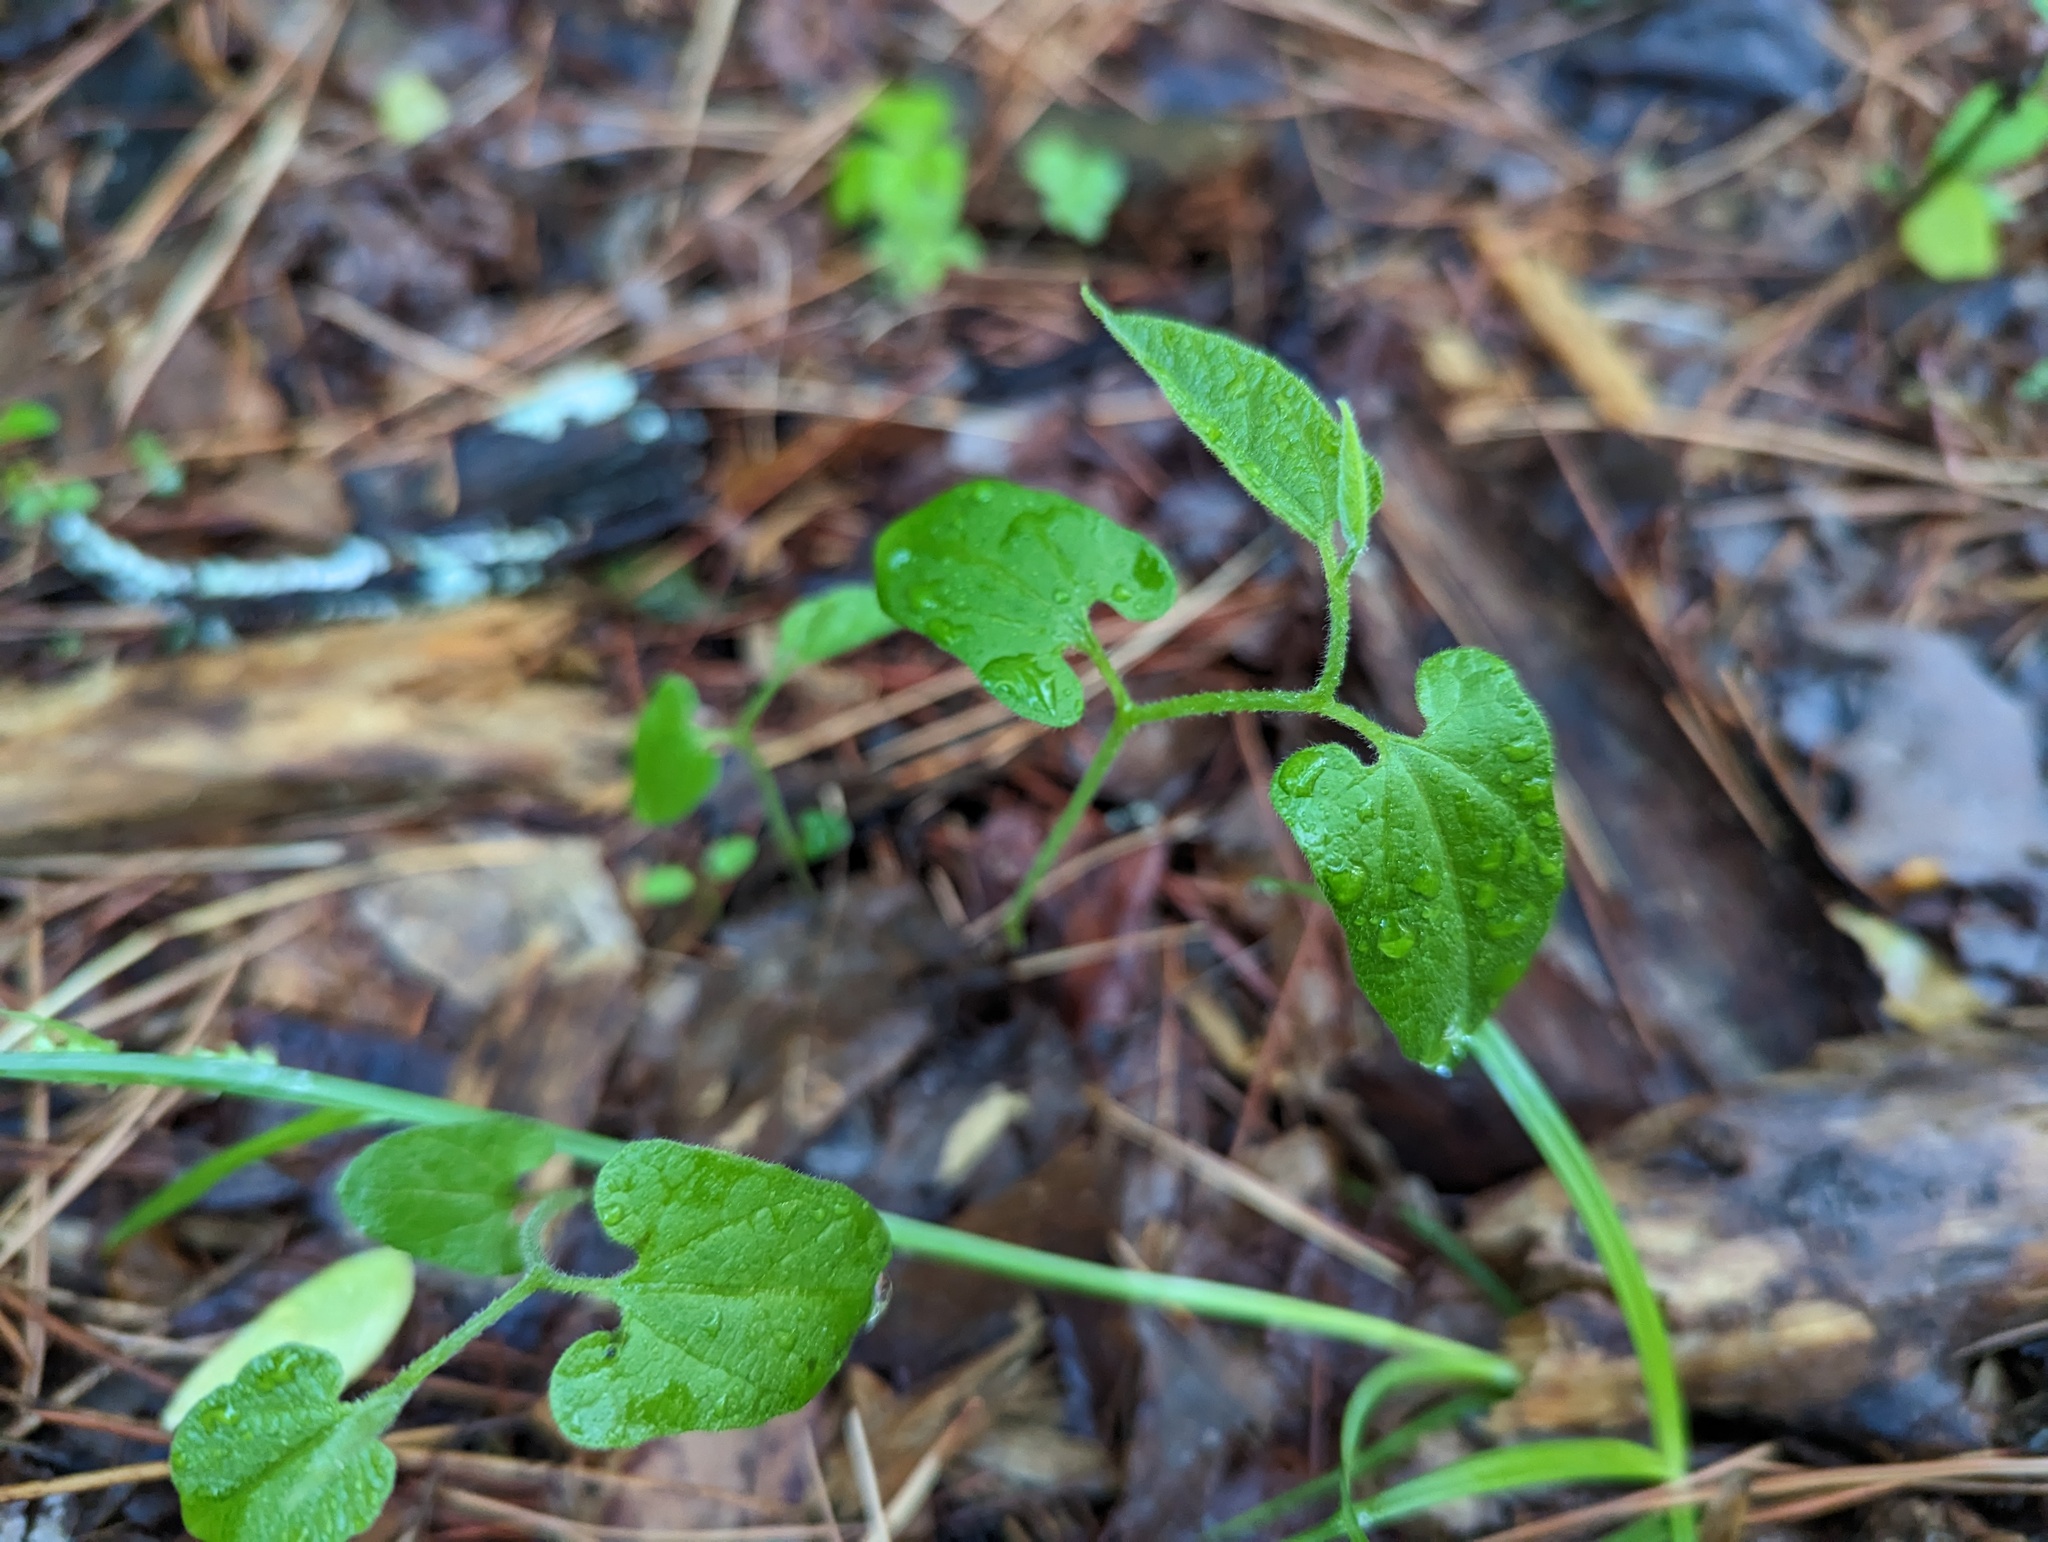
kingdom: Plantae
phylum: Tracheophyta
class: Magnoliopsida
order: Piperales
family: Aristolochiaceae
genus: Endodeca
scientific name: Endodeca serpentaria
